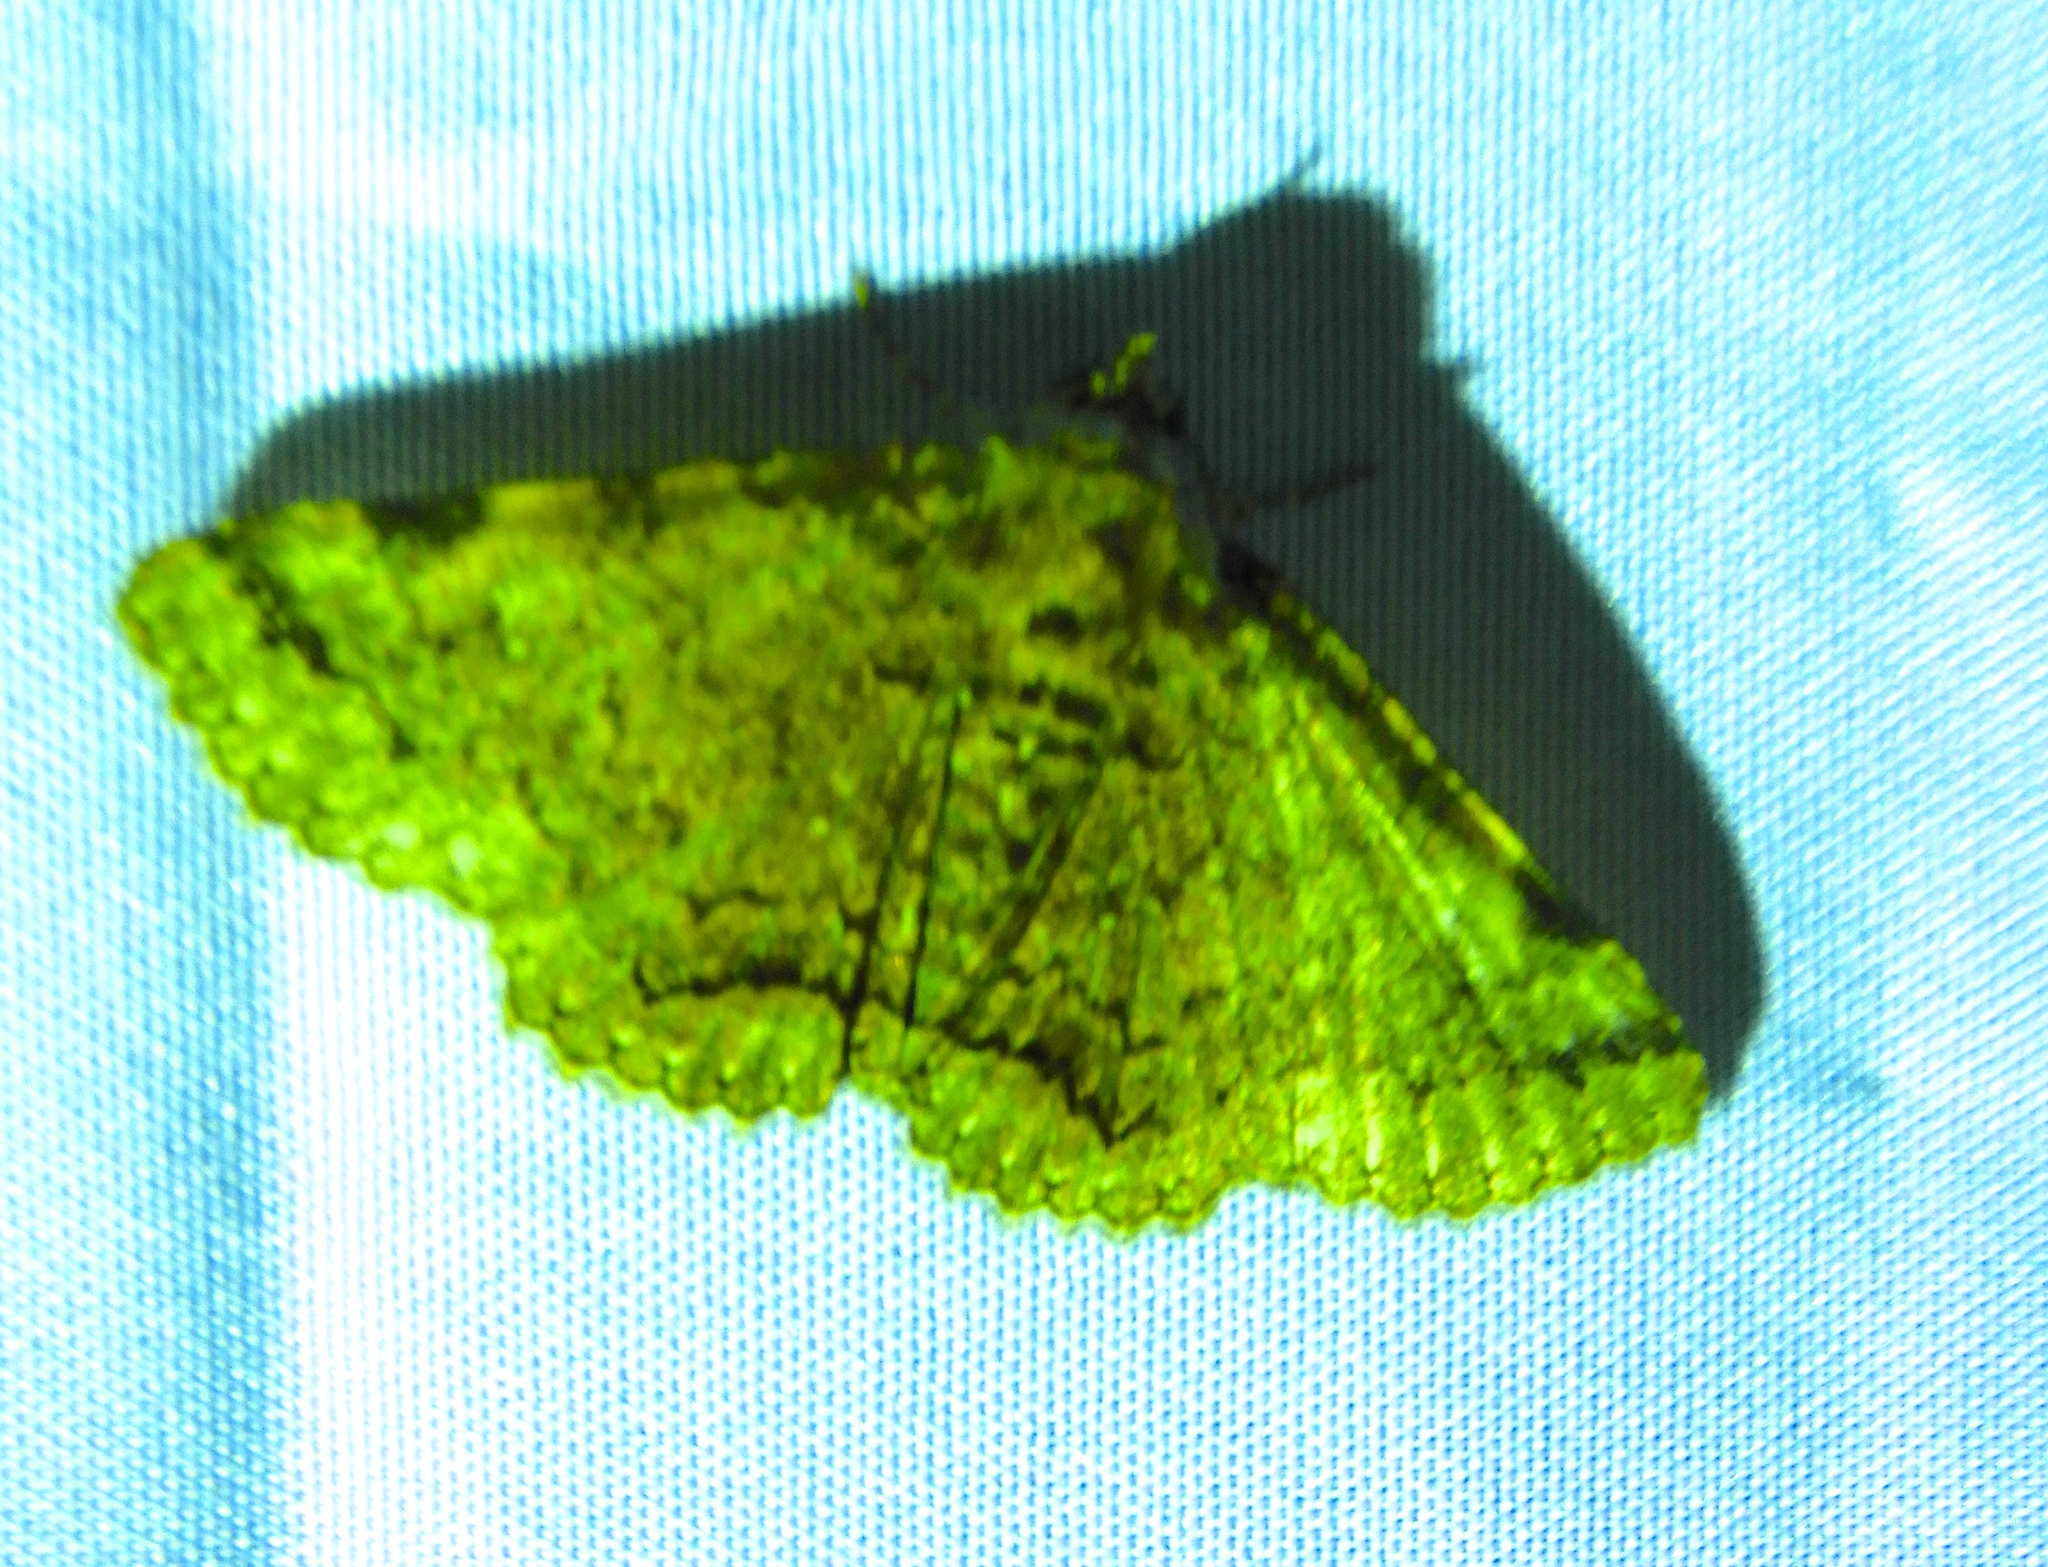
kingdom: Animalia
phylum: Arthropoda
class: Insecta
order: Lepidoptera
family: Erebidae
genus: Metalectra
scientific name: Metalectra discalis
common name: Common fungus moth
